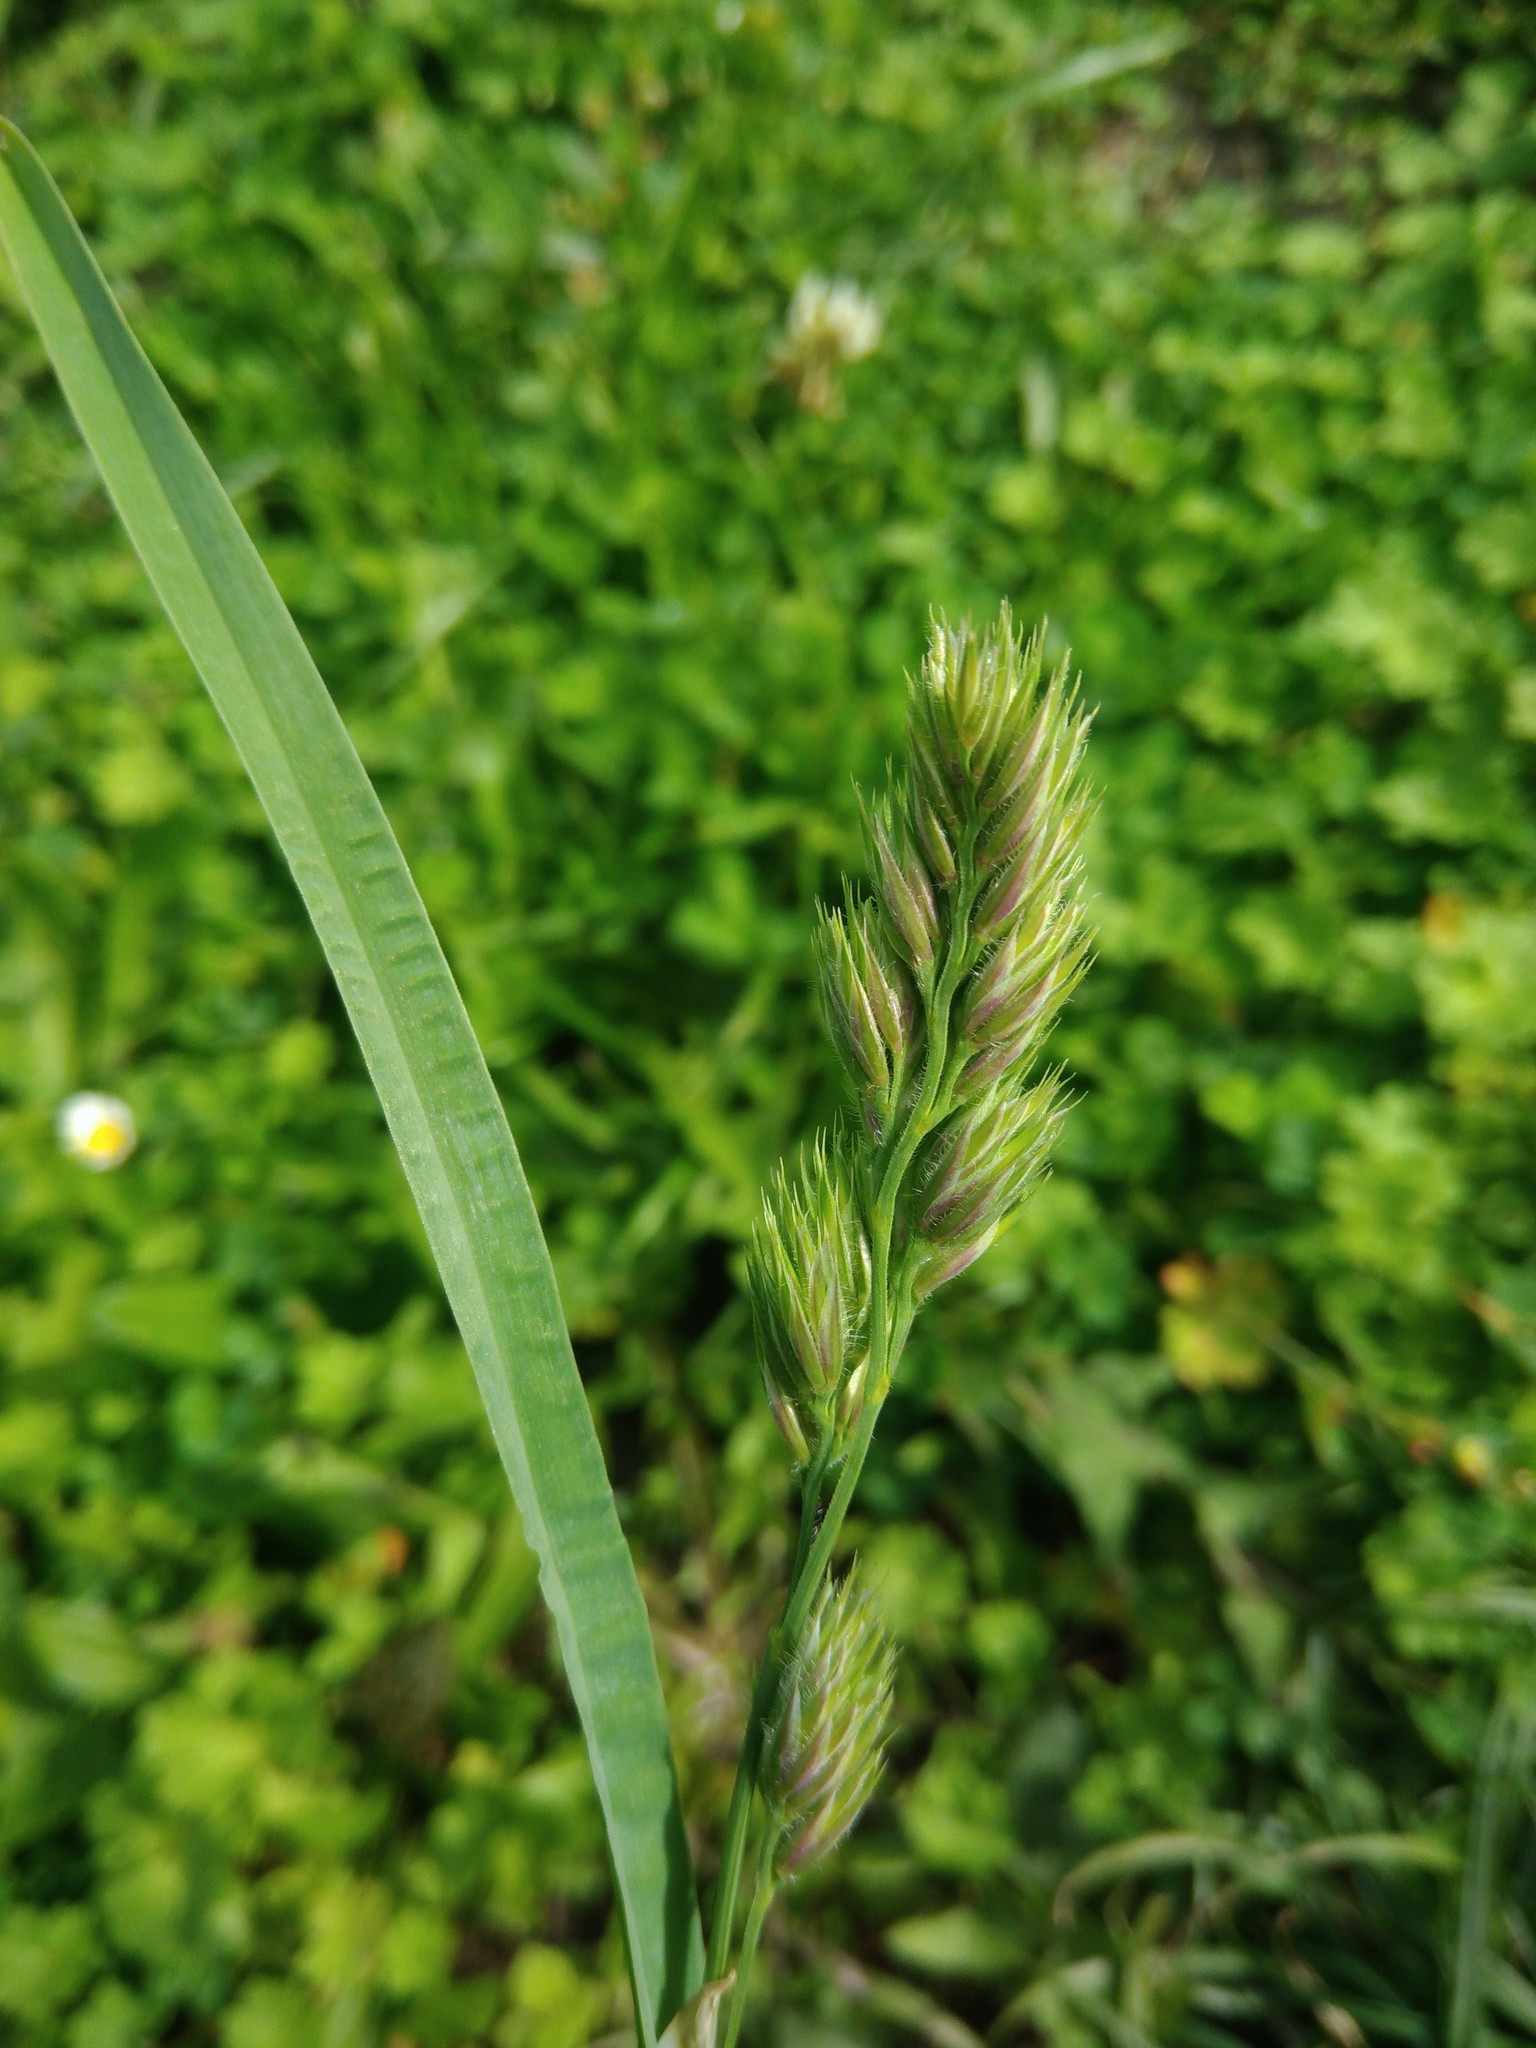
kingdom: Plantae
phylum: Tracheophyta
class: Liliopsida
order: Poales
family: Poaceae
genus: Dactylis
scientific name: Dactylis glomerata
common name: Orchardgrass
